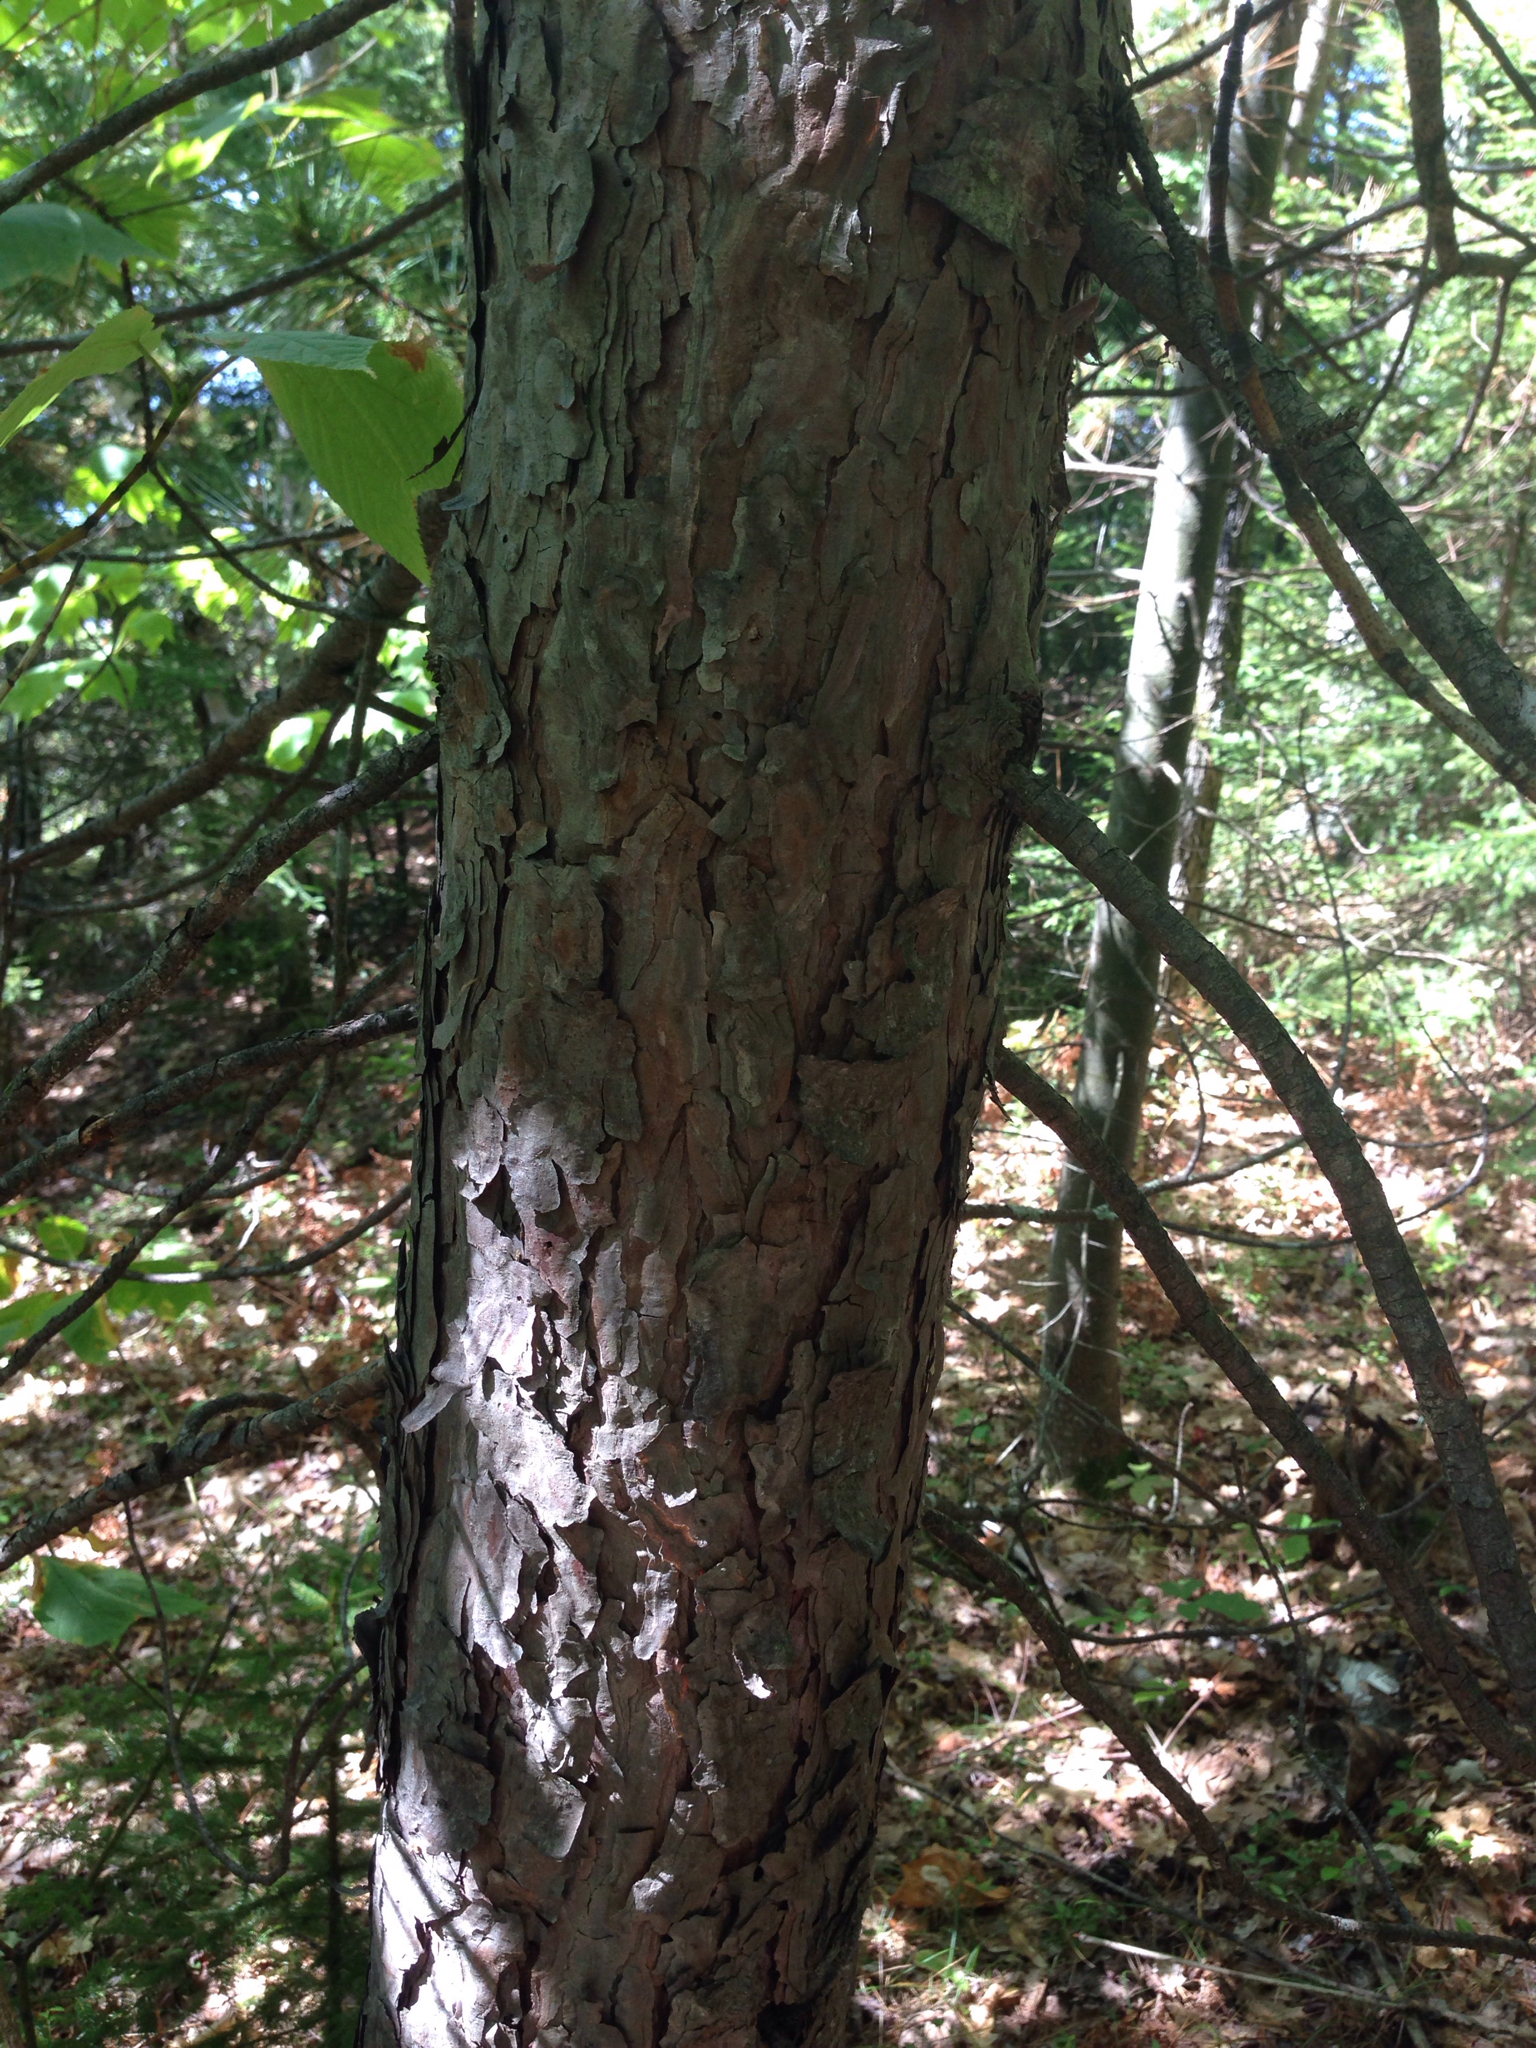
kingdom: Plantae
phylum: Tracheophyta
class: Pinopsida
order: Pinales
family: Pinaceae
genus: Pinus
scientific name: Pinus resinosa
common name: Norway pine
